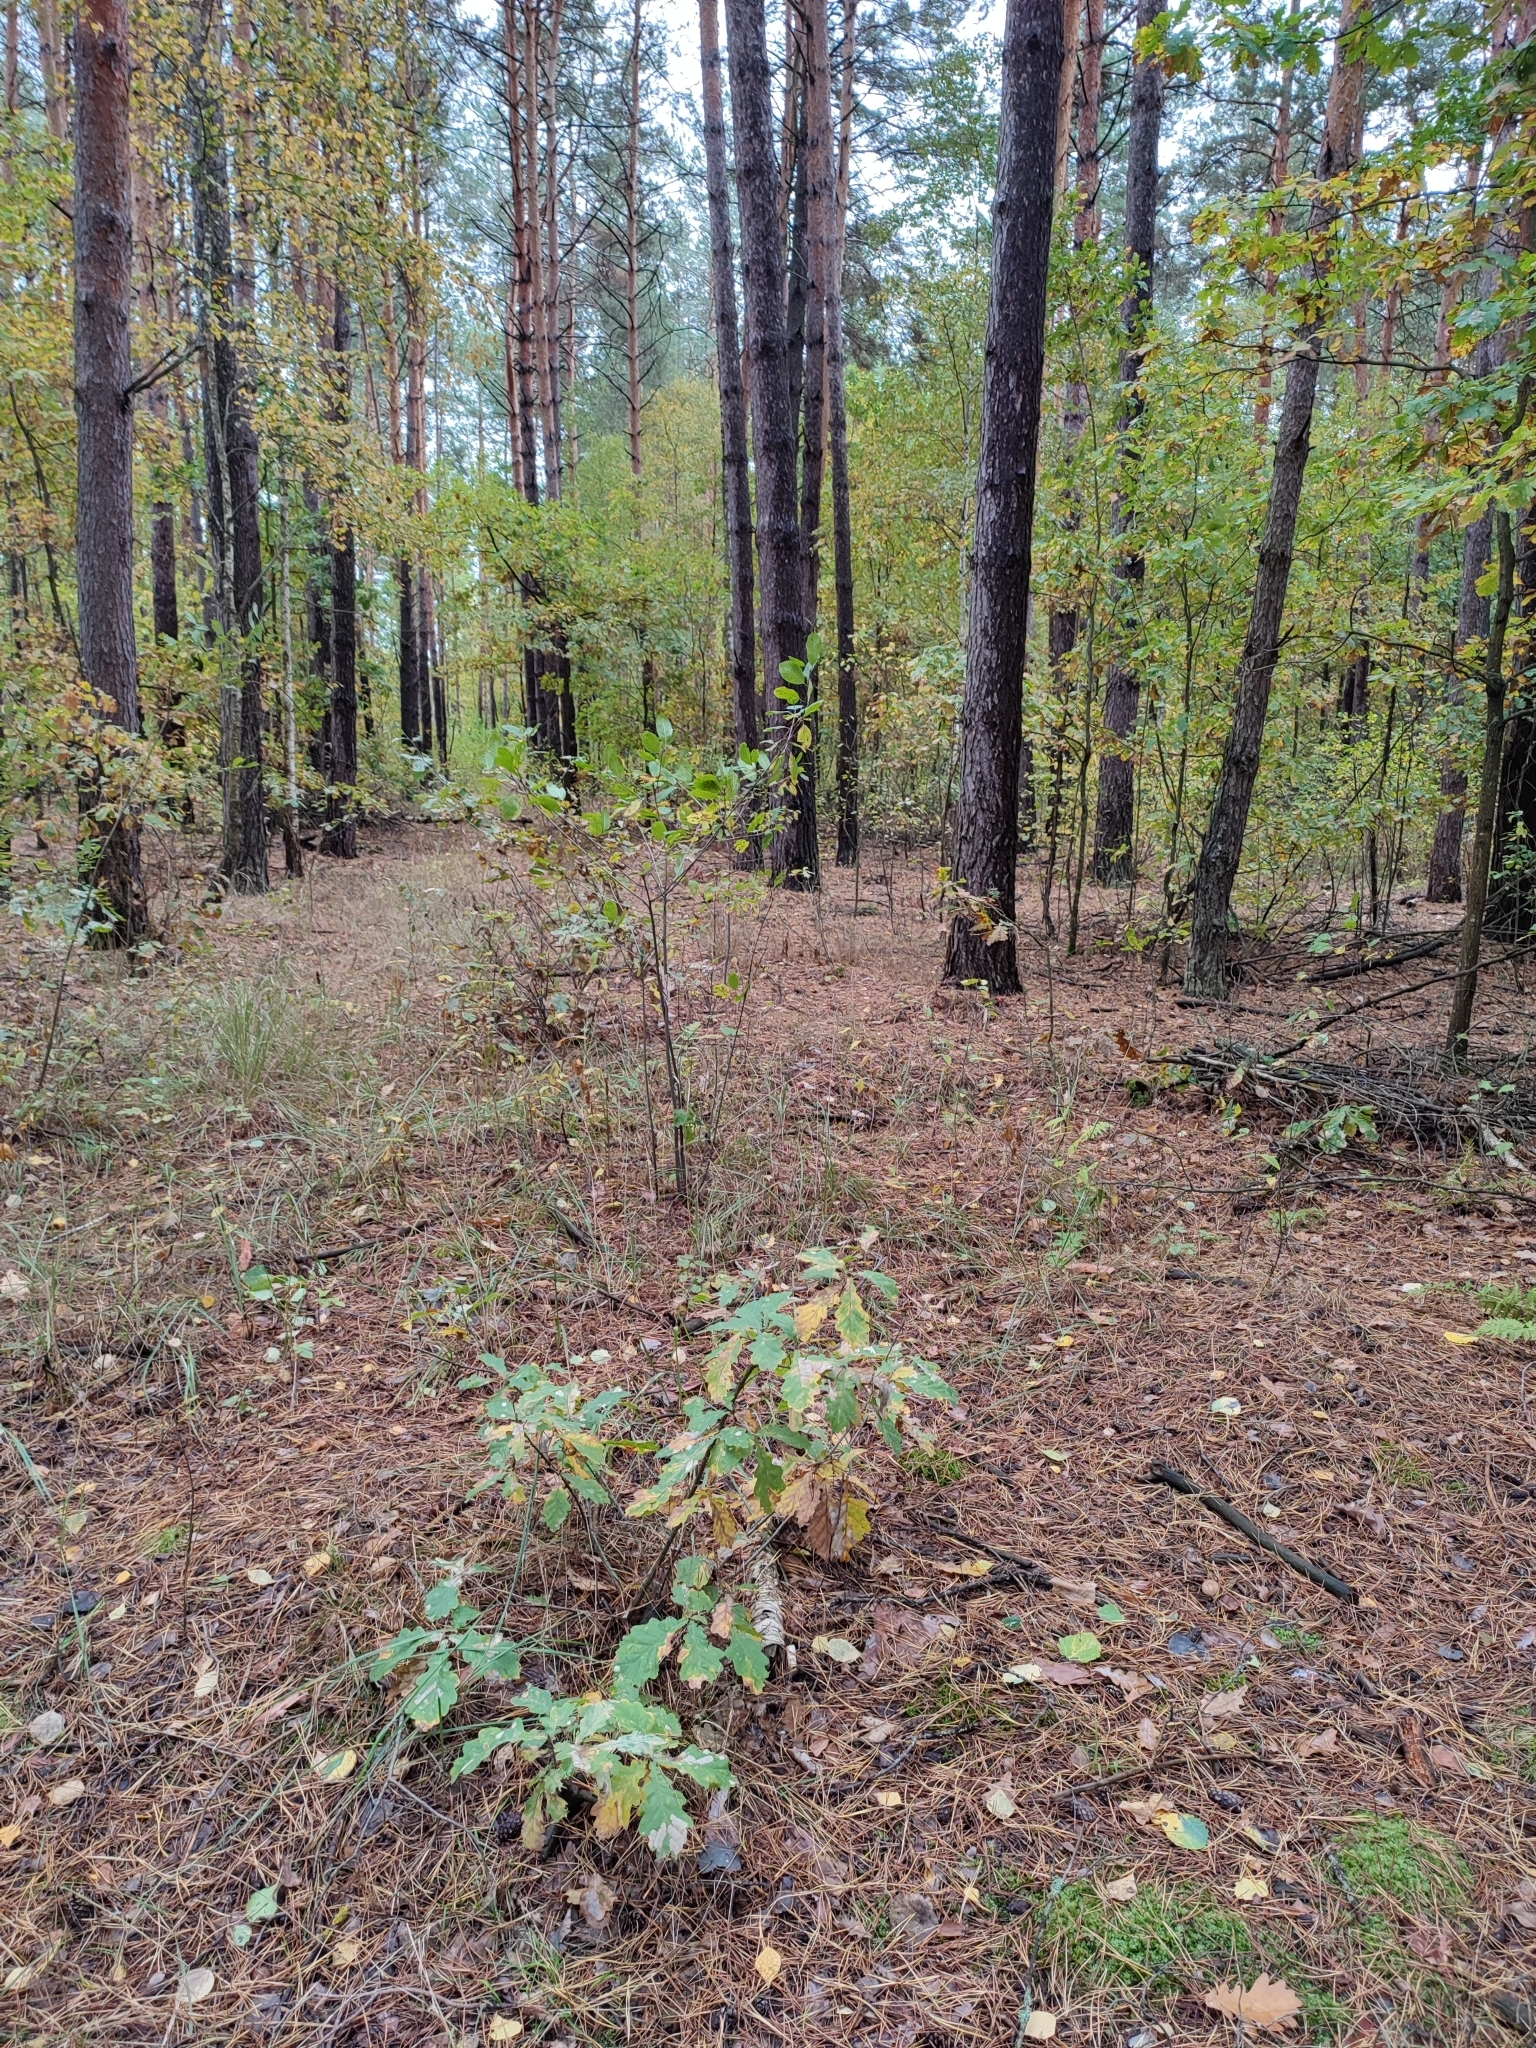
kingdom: Plantae
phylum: Tracheophyta
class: Magnoliopsida
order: Fagales
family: Fagaceae
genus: Quercus
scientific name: Quercus robur
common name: Pedunculate oak
